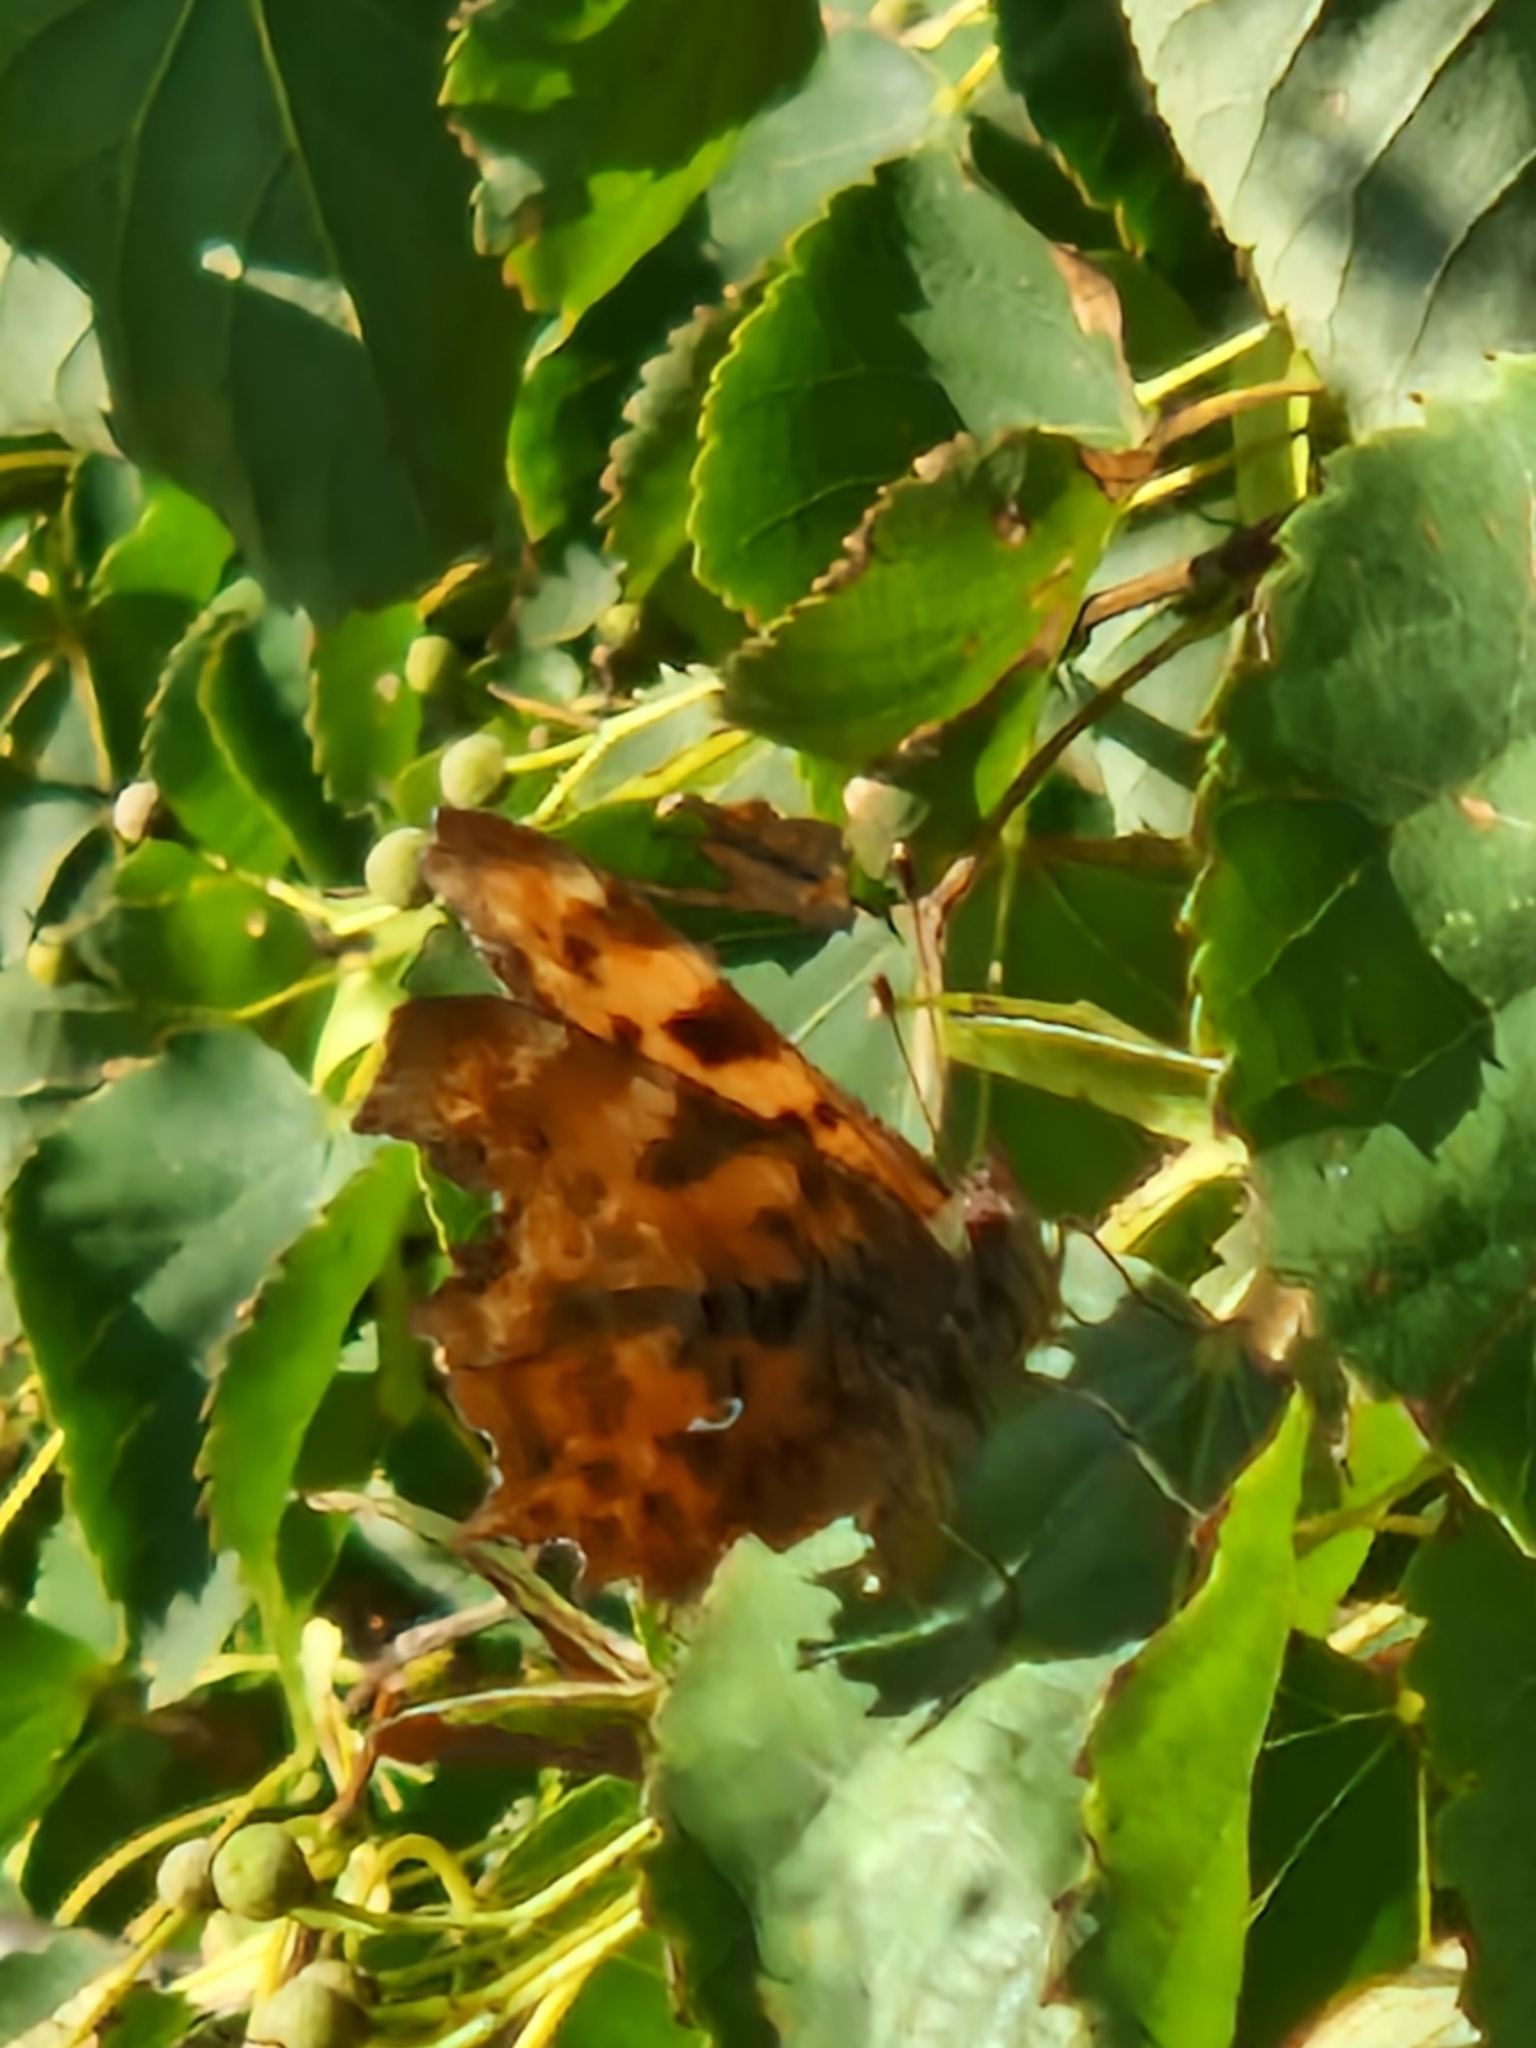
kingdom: Animalia
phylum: Arthropoda
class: Insecta
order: Lepidoptera
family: Nymphalidae
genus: Polygonia
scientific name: Polygonia c-album
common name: Comma
